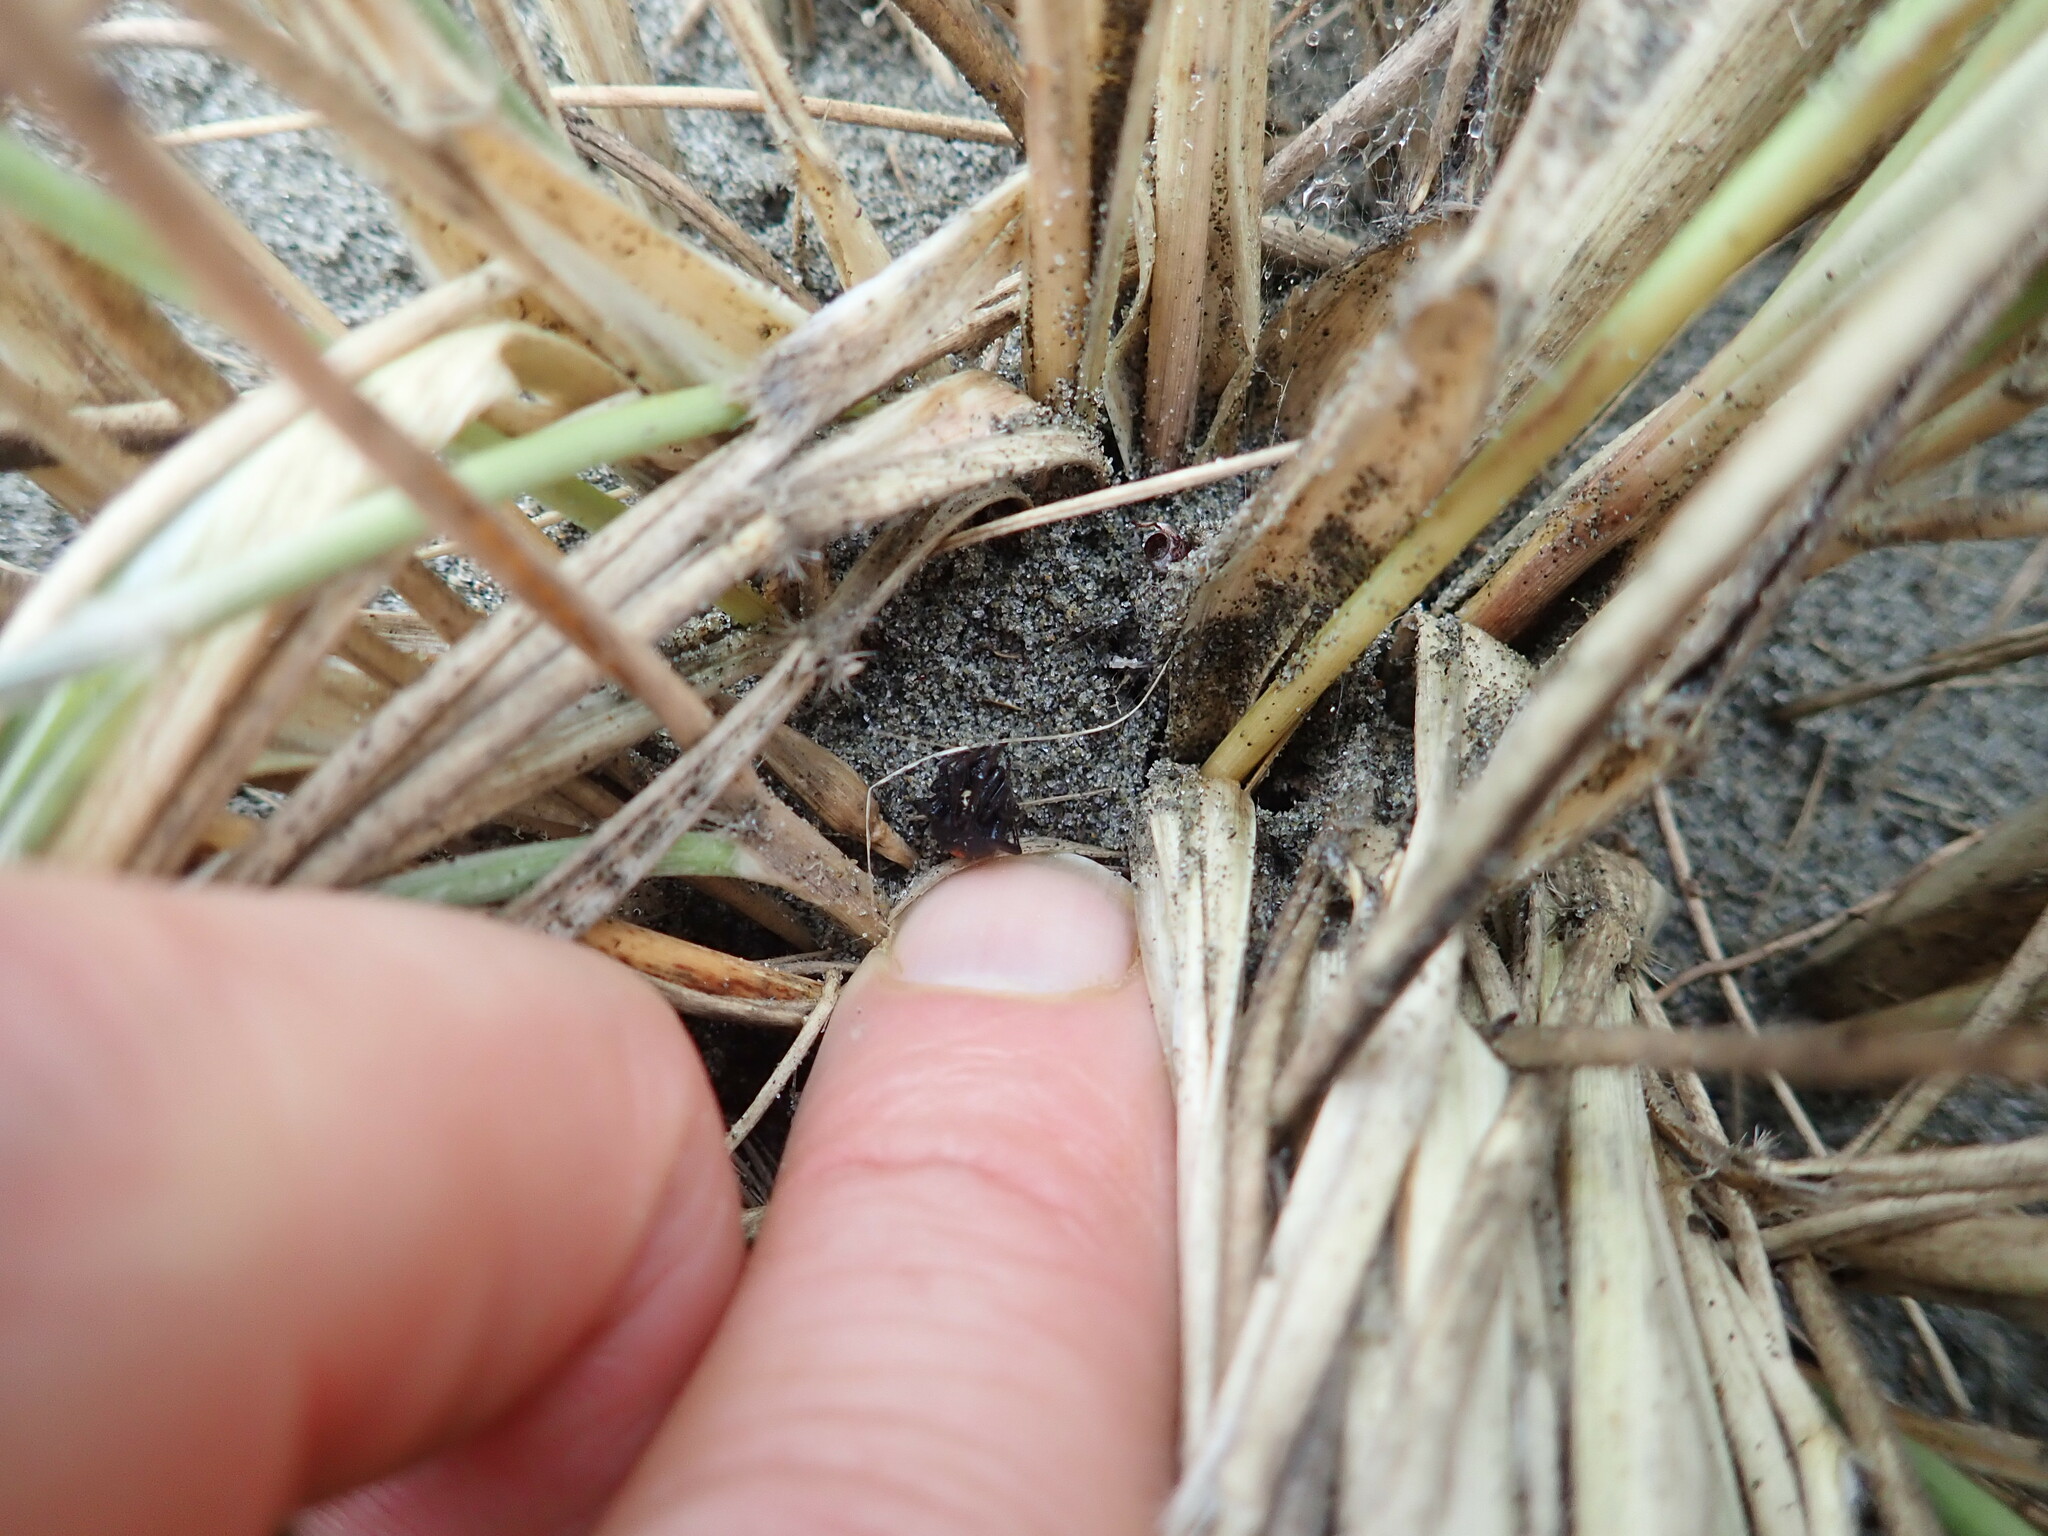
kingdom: Animalia
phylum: Arthropoda
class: Arachnida
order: Araneae
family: Theridiidae
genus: Latrodectus
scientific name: Latrodectus katipo
